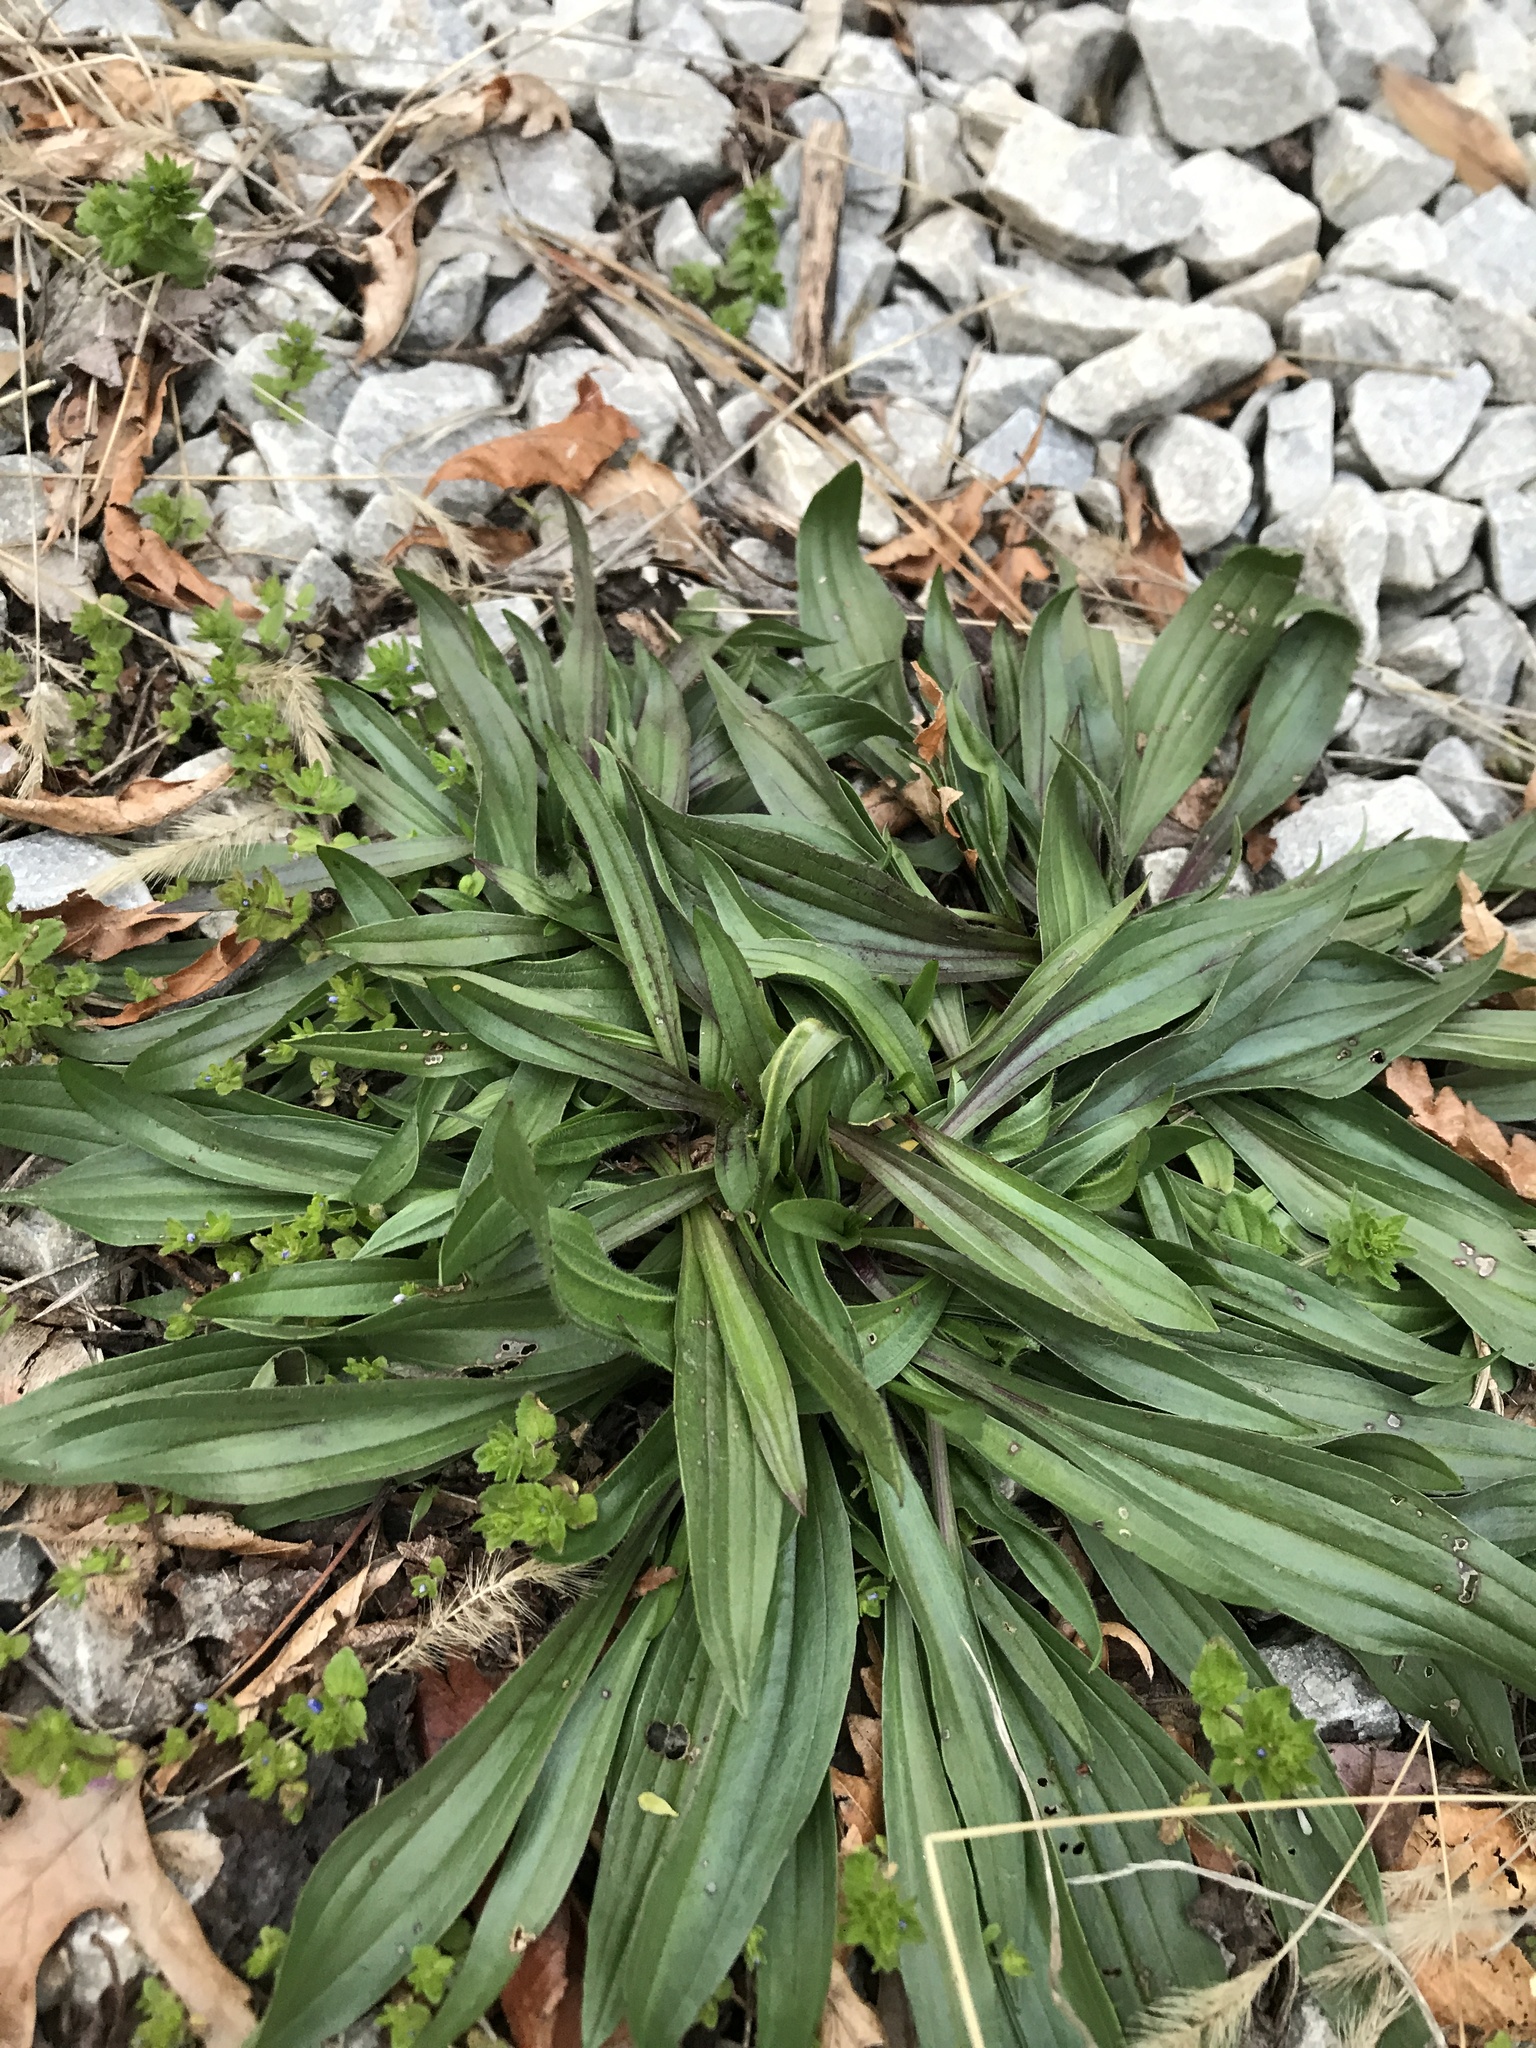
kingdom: Plantae
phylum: Tracheophyta
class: Magnoliopsida
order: Lamiales
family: Plantaginaceae
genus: Plantago
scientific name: Plantago lanceolata
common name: Ribwort plantain
